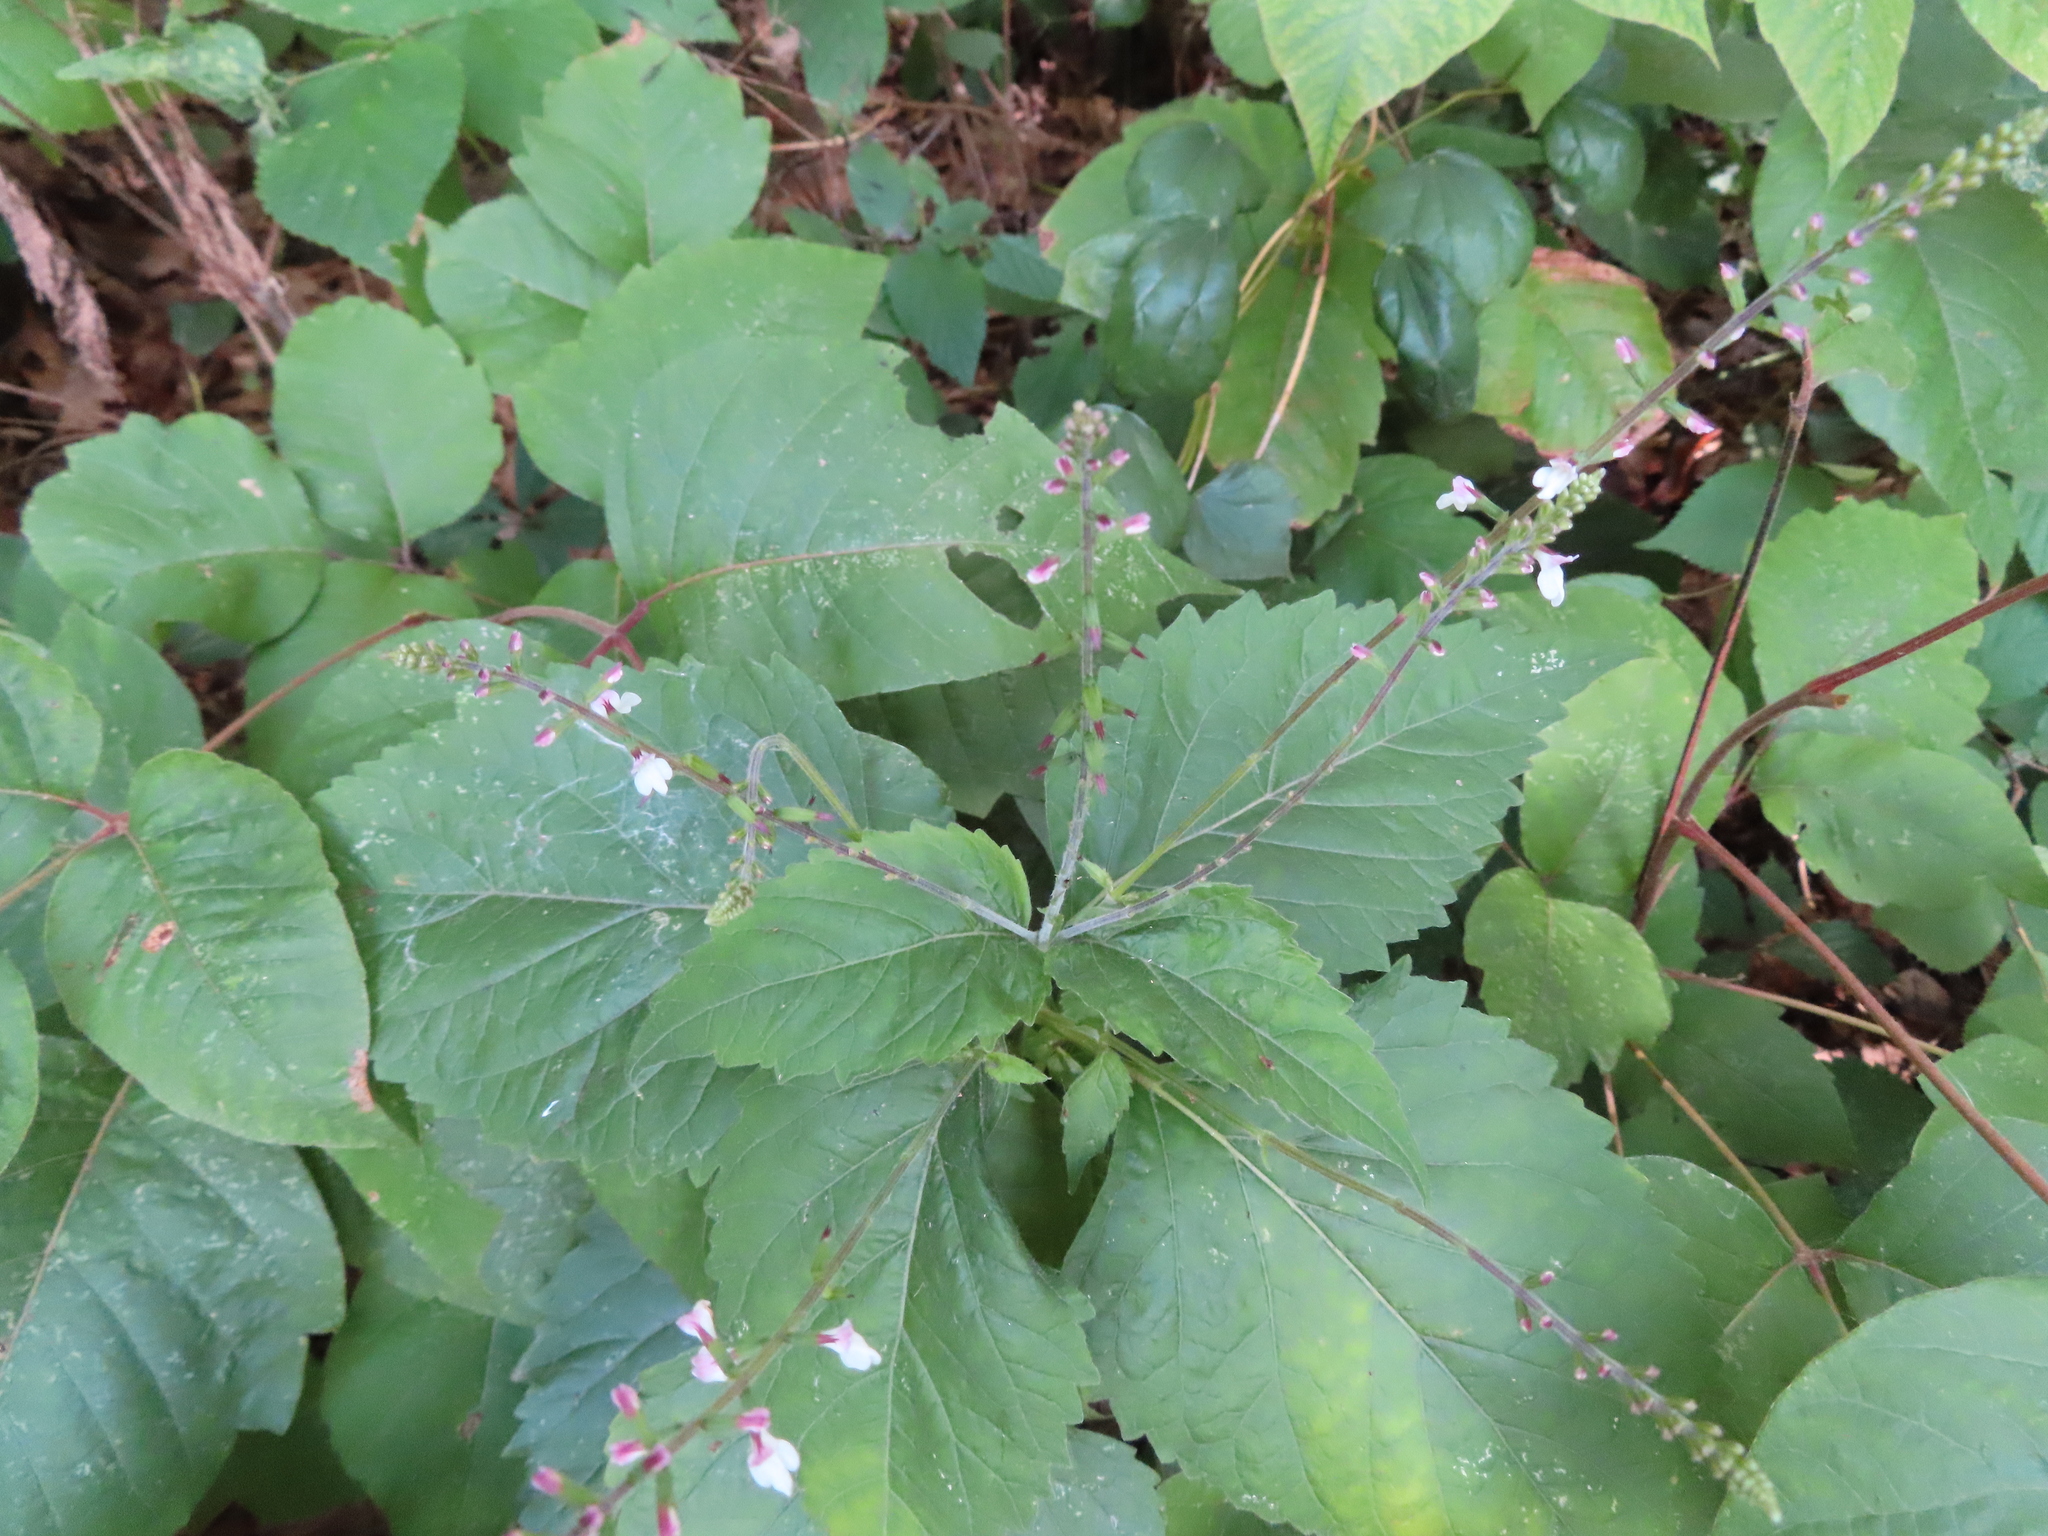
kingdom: Plantae
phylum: Tracheophyta
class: Magnoliopsida
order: Lamiales
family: Phrymaceae
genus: Phryma
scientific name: Phryma leptostachya
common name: American lopseed
